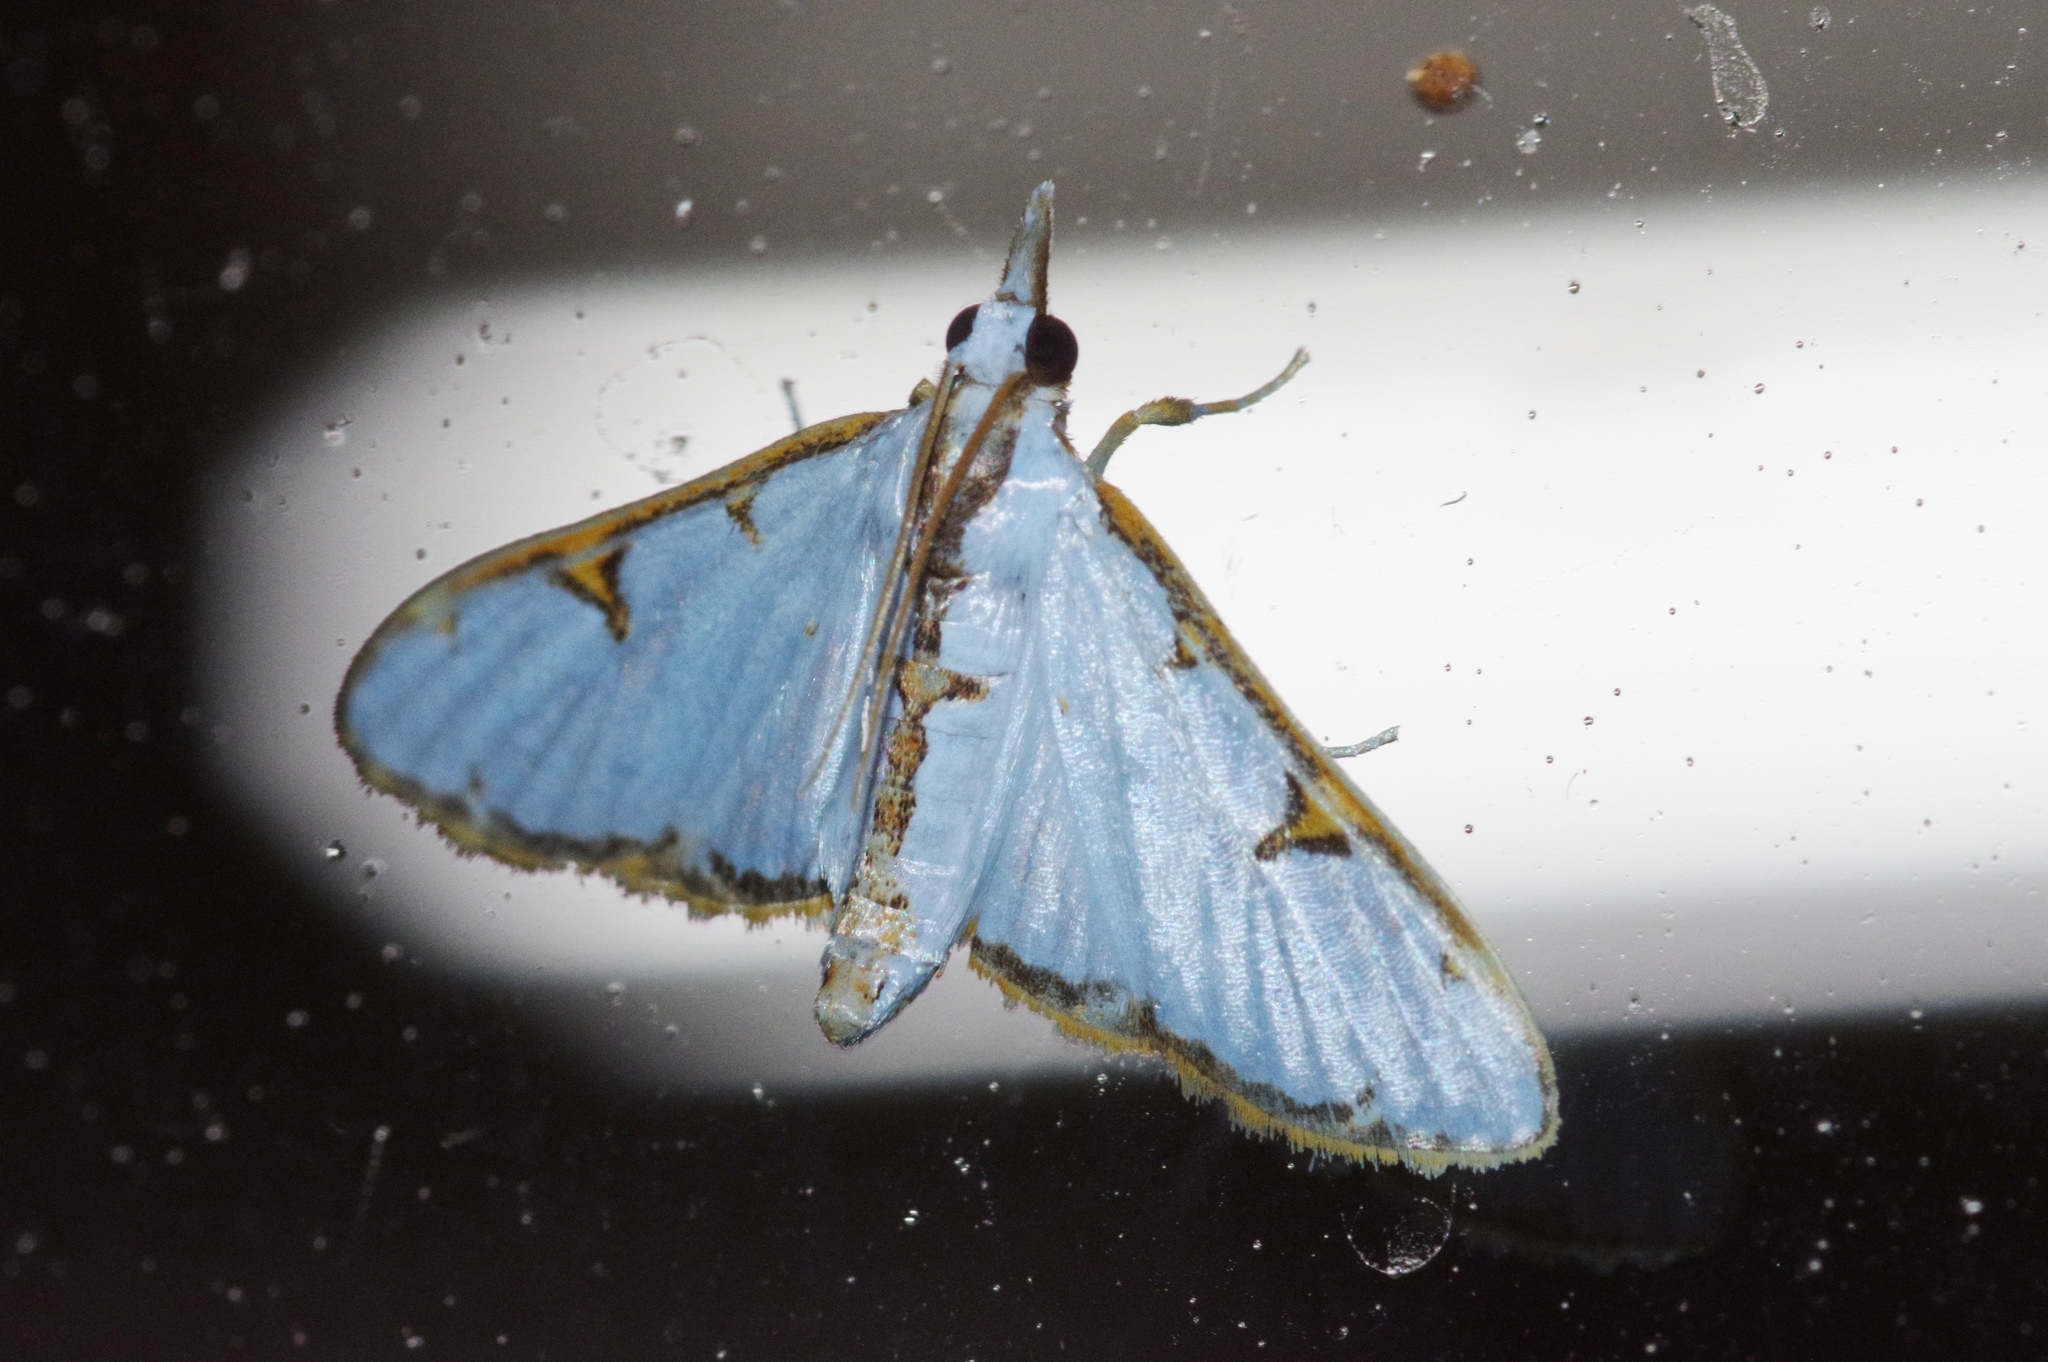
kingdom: Animalia
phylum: Arthropoda
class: Insecta
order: Lepidoptera
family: Crambidae
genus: Cirrhochrista
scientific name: Cirrhochrista brizoalis
